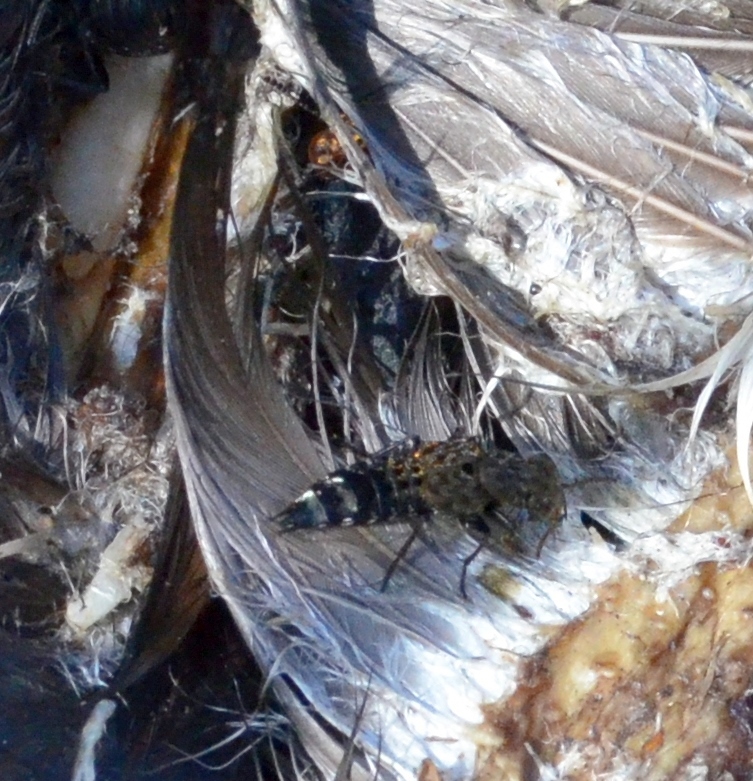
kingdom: Animalia
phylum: Arthropoda
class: Insecta
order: Coleoptera
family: Staphylinidae
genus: Ontholestes
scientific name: Ontholestes murinus
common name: Staph beetle
